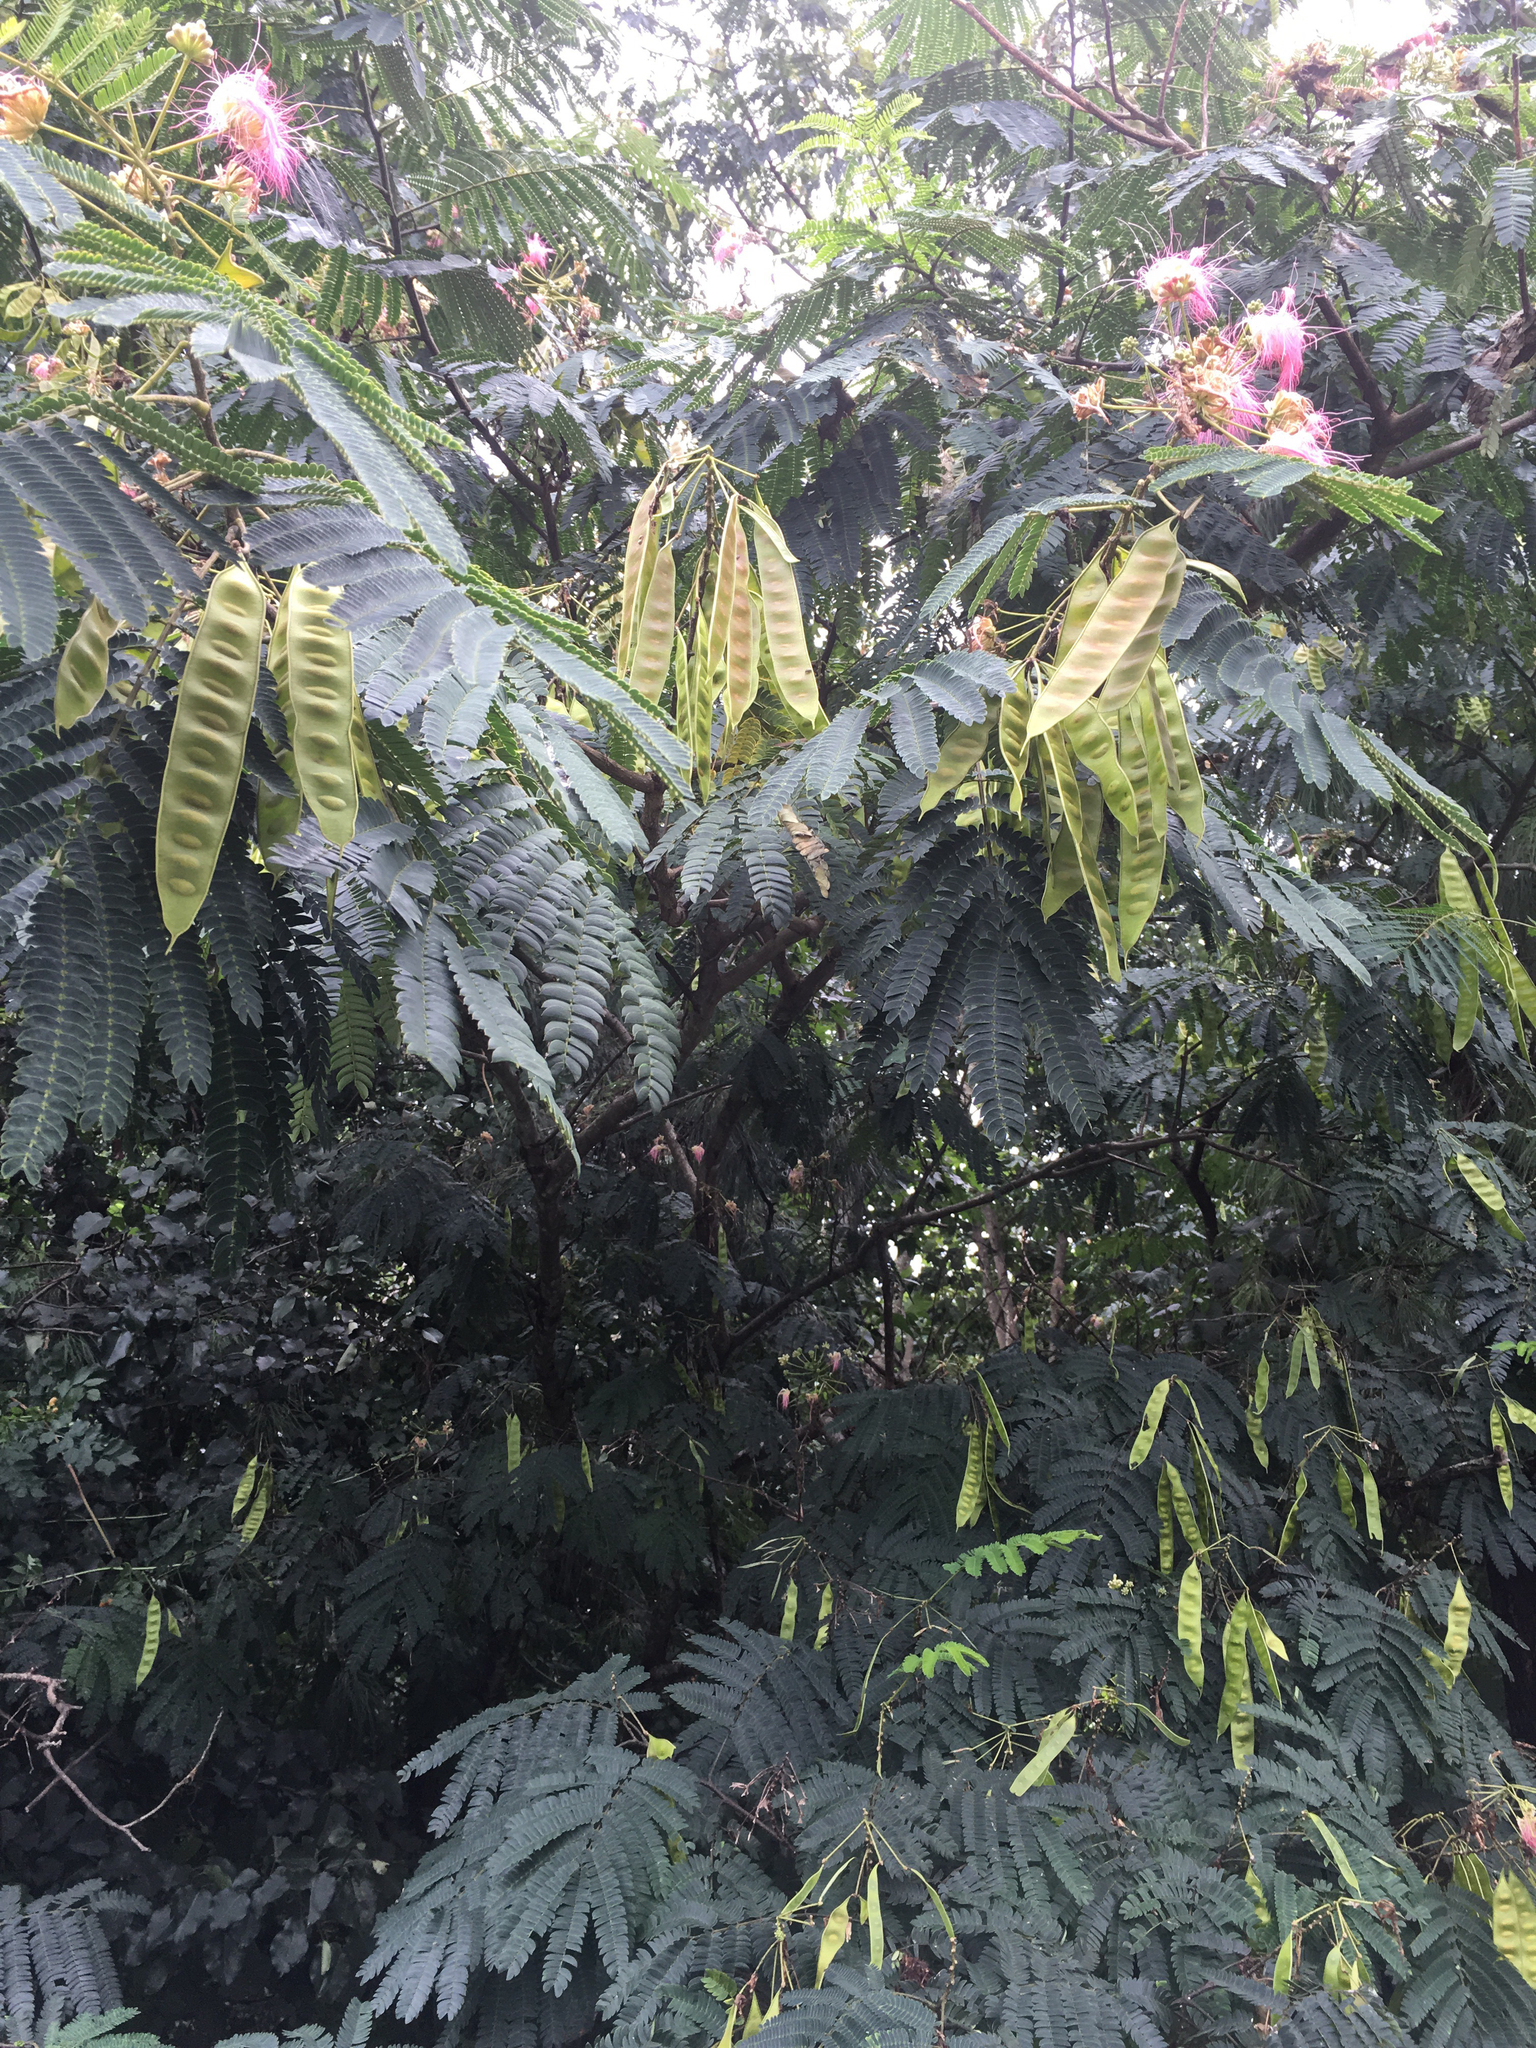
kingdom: Plantae
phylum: Tracheophyta
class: Magnoliopsida
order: Fabales
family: Fabaceae
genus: Albizia
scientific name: Albizia julibrissin
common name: Silktree
